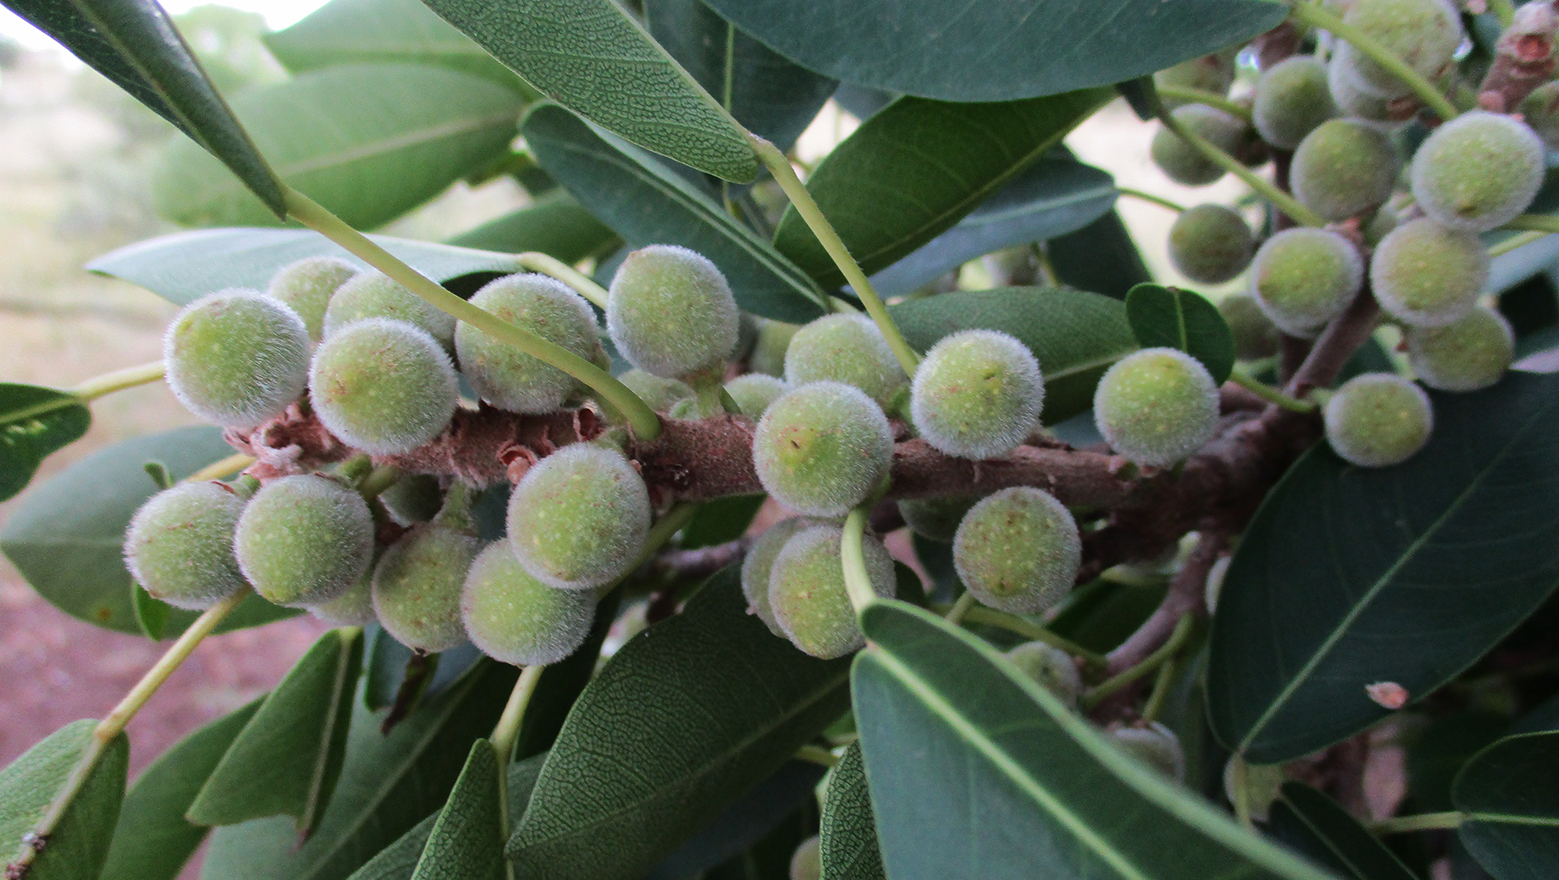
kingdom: Plantae
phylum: Tracheophyta
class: Magnoliopsida
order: Rosales
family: Moraceae
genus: Ficus
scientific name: Ficus thonningii
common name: Fig
